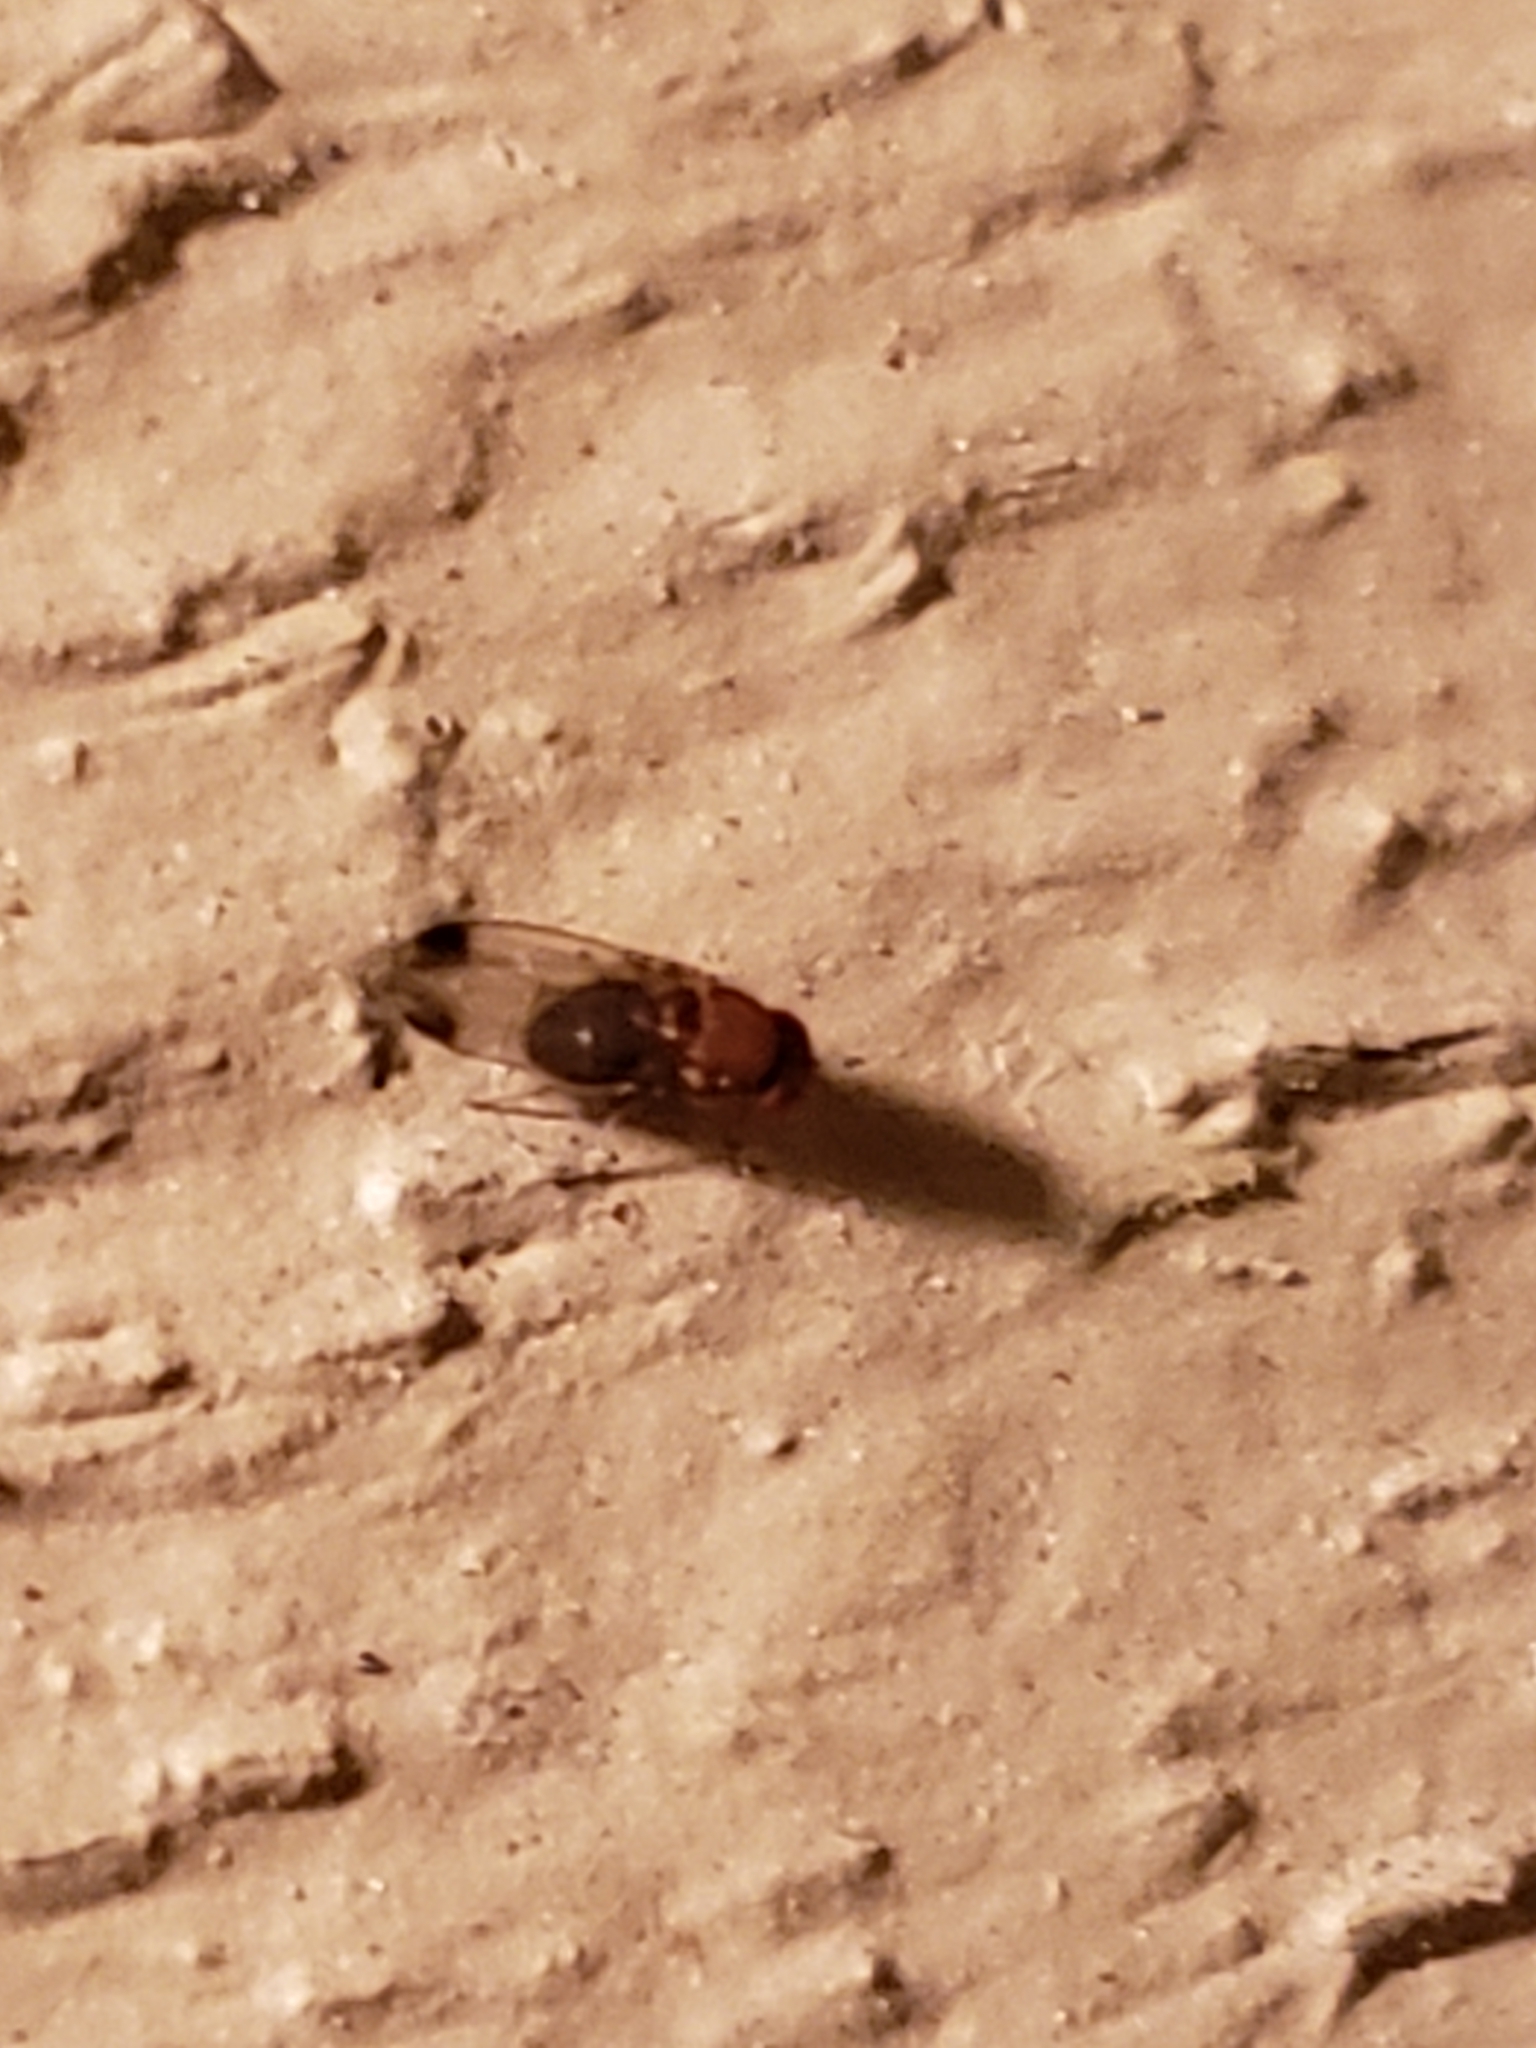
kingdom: Animalia
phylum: Arthropoda
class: Insecta
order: Diptera
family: Drosophilidae
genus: Drosophila
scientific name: Drosophila suzukii
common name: Spotted-wing drosophila
